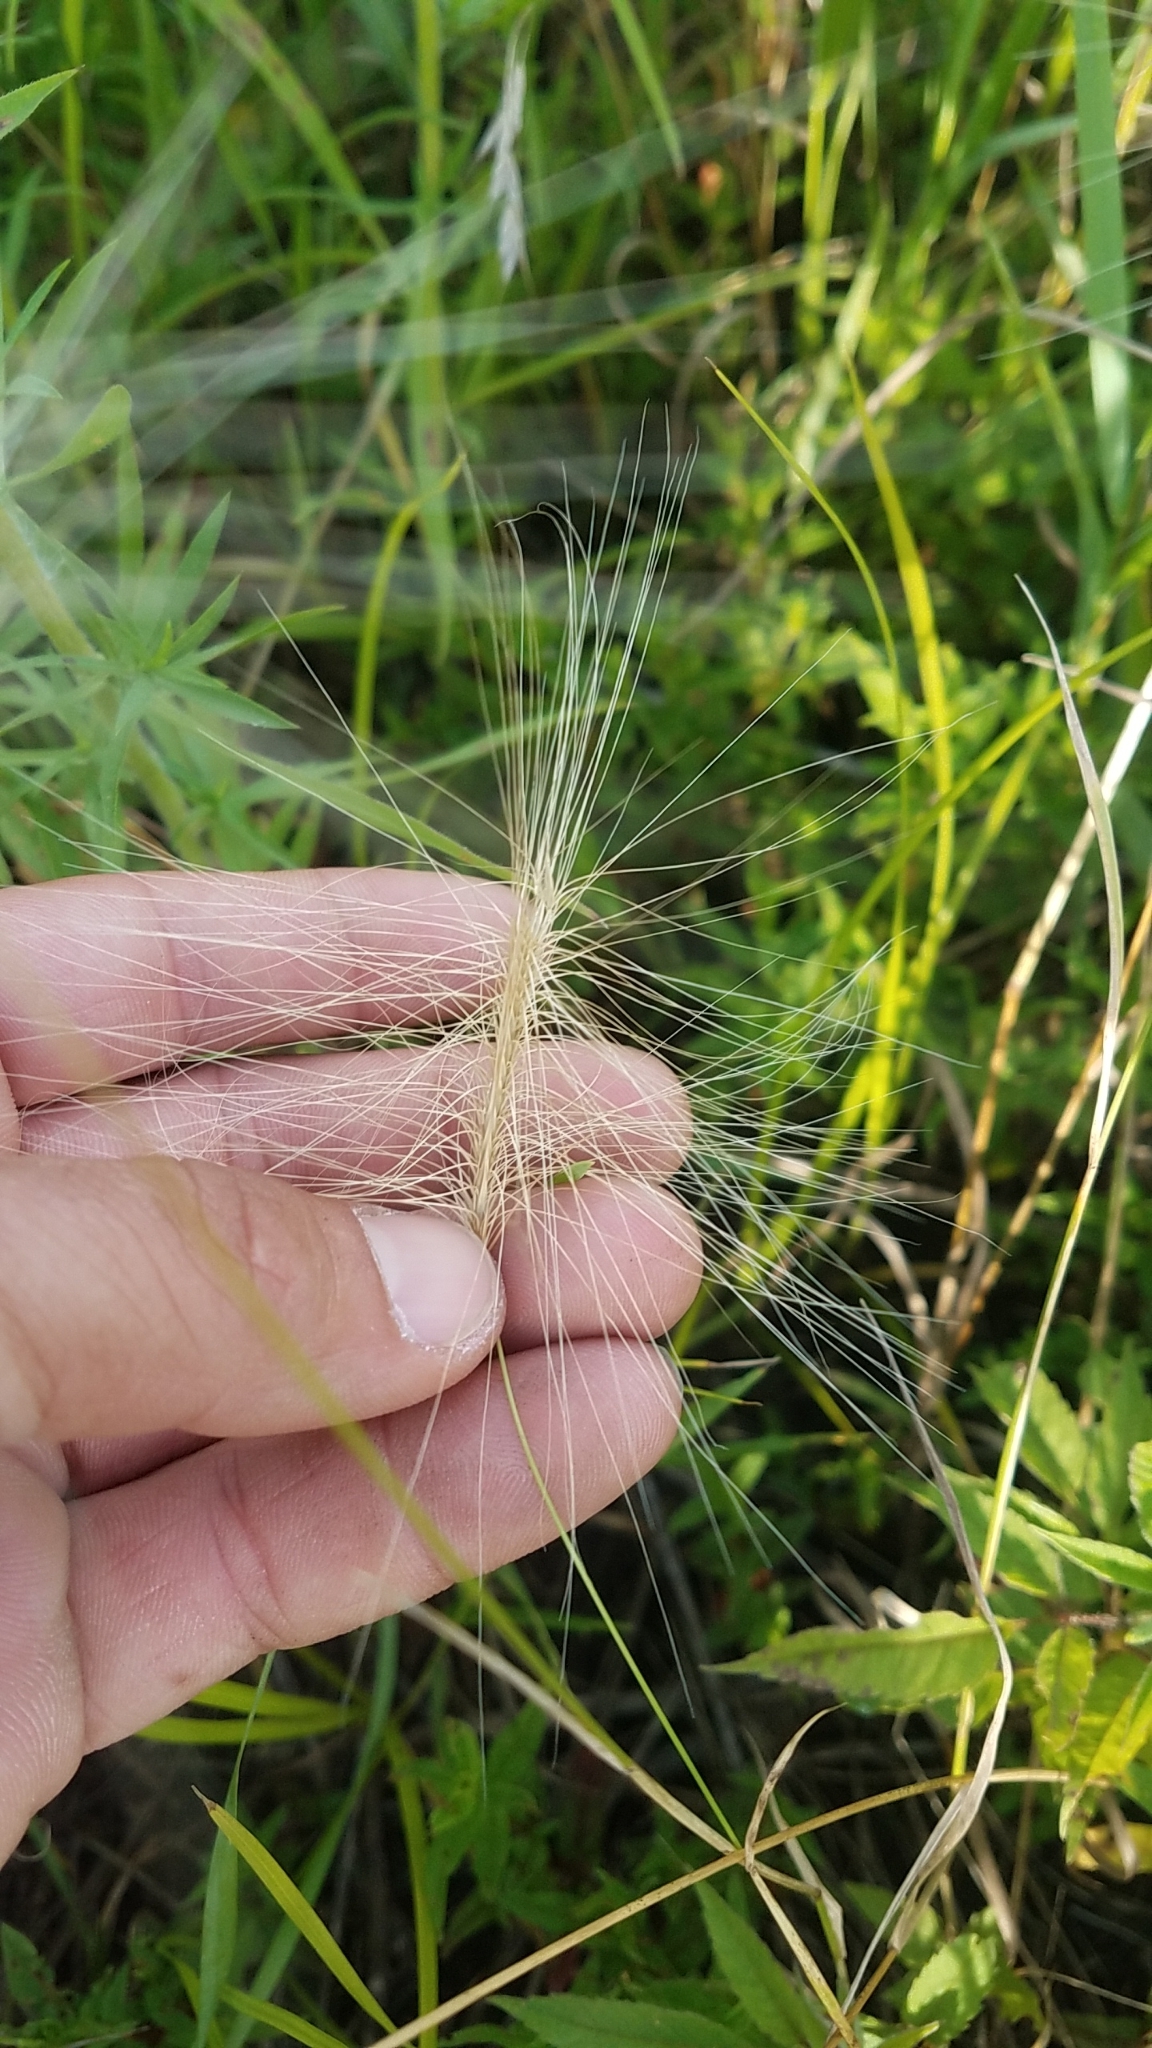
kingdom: Plantae
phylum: Tracheophyta
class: Liliopsida
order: Poales
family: Poaceae
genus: Hordeum
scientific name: Hordeum jubatum
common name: Foxtail barley
